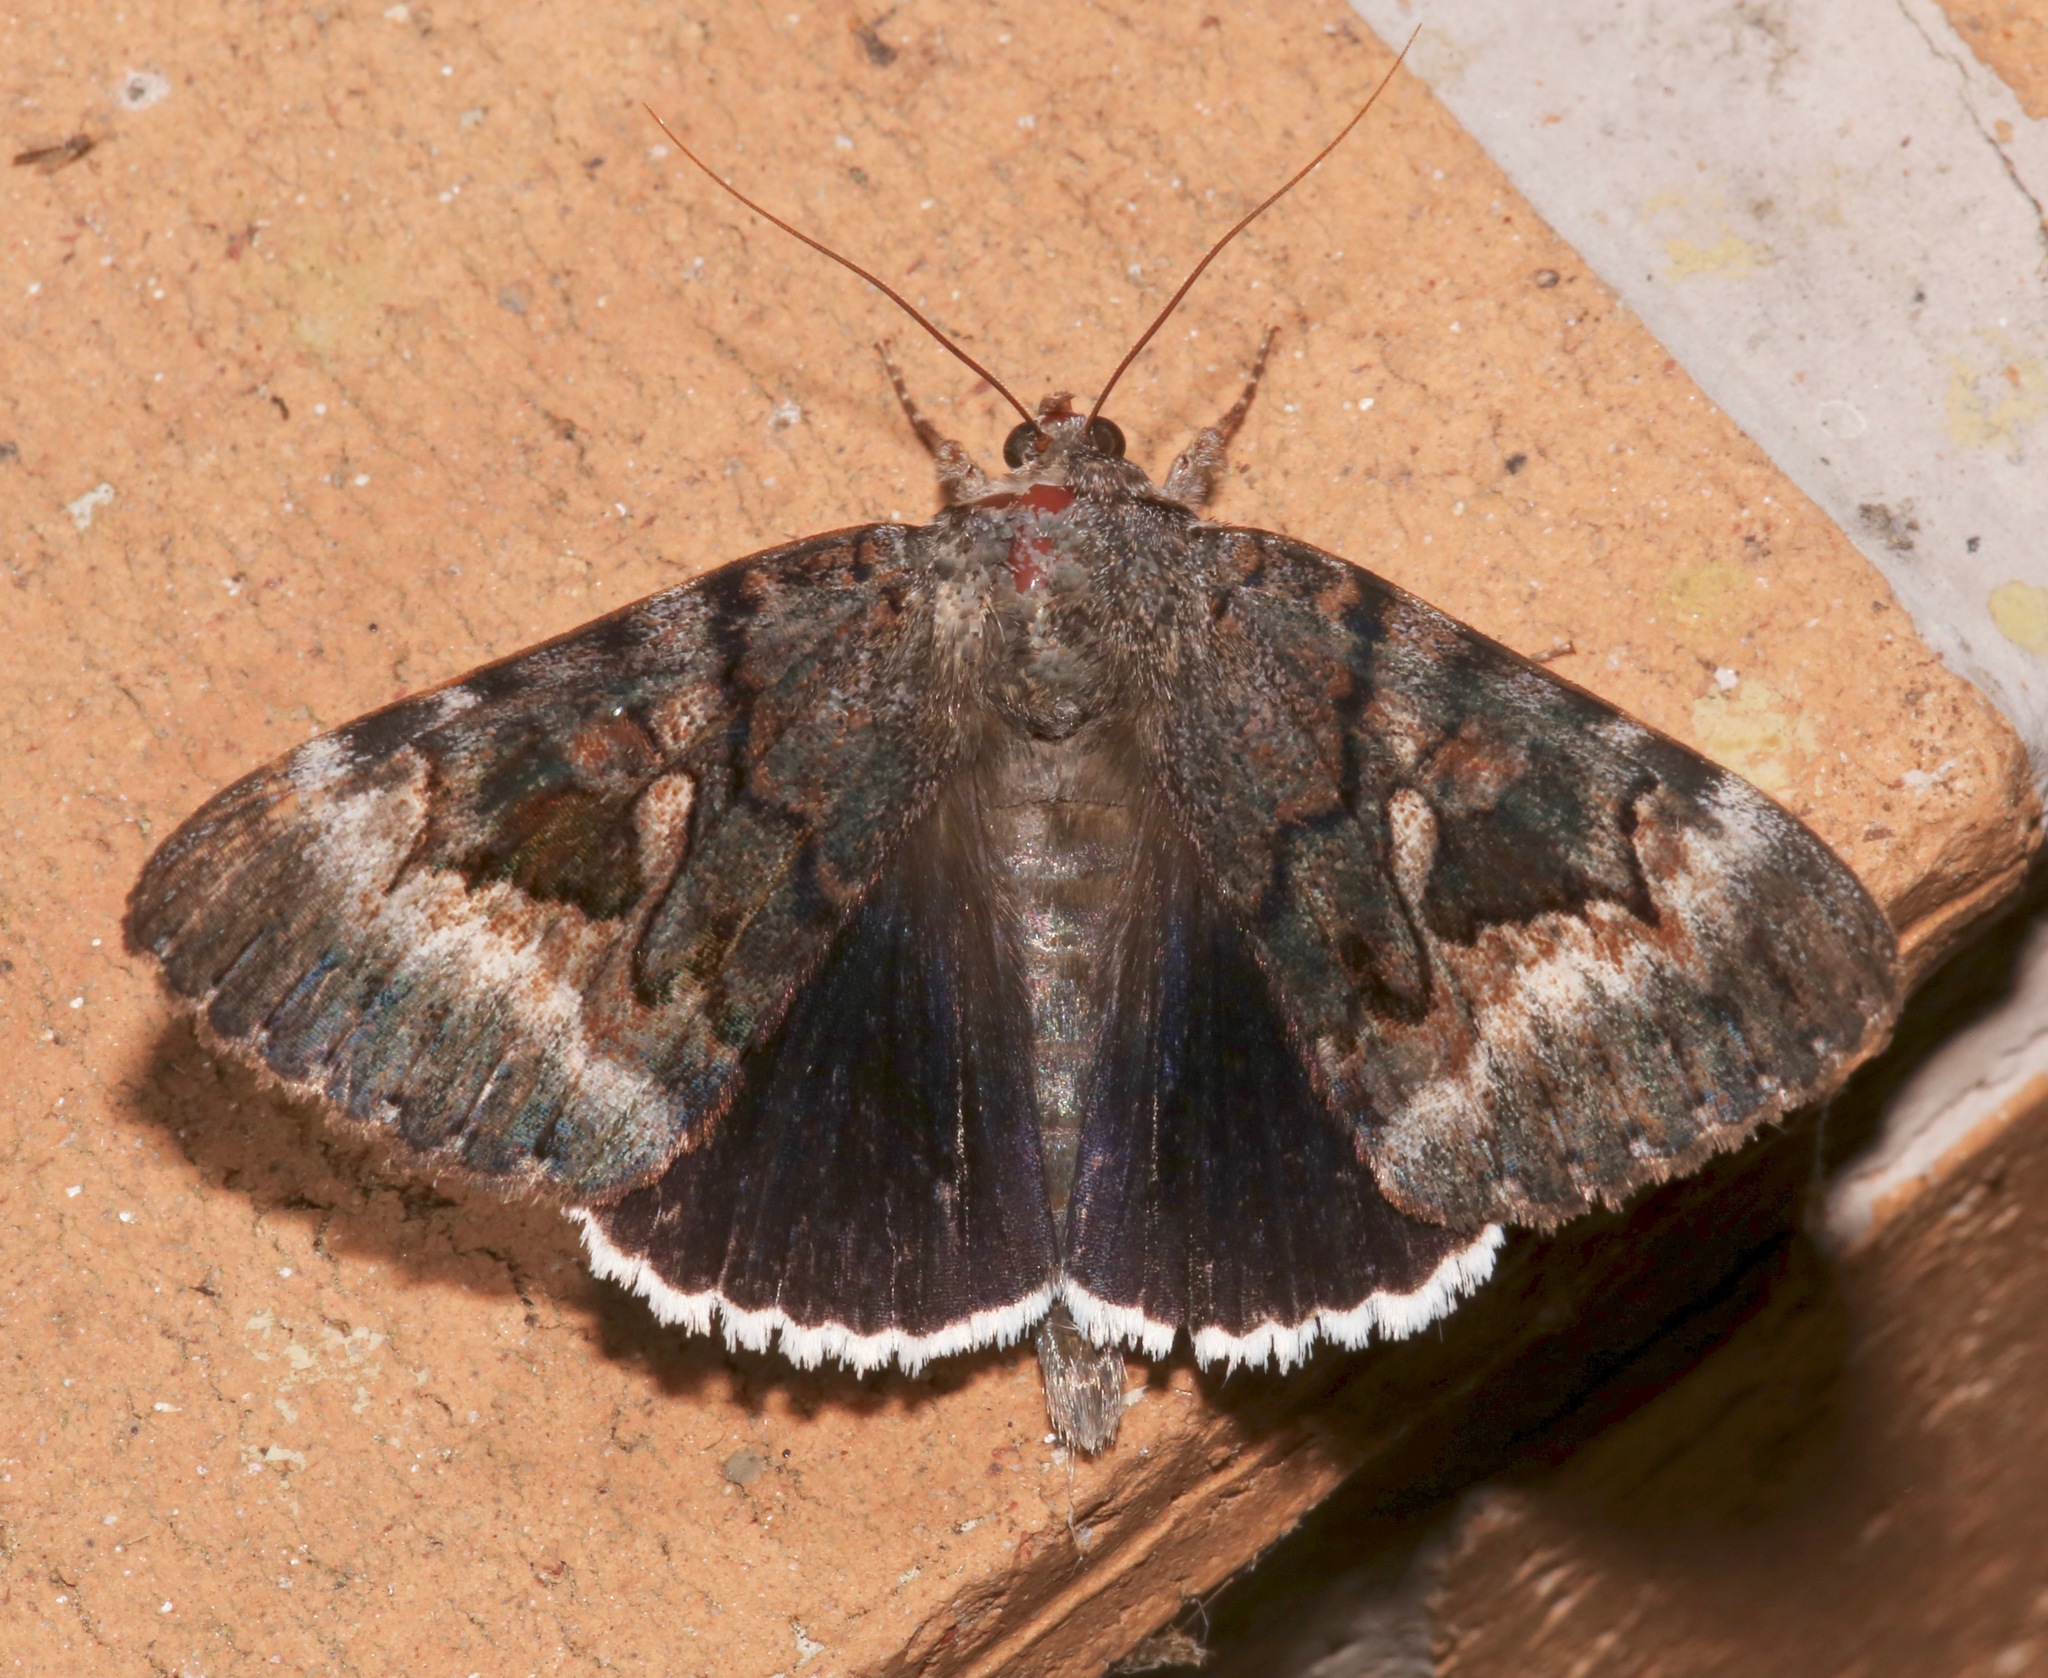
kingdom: Animalia
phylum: Arthropoda
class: Insecta
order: Lepidoptera
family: Erebidae
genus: Catocala
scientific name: Catocala epione
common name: Epione underwing
